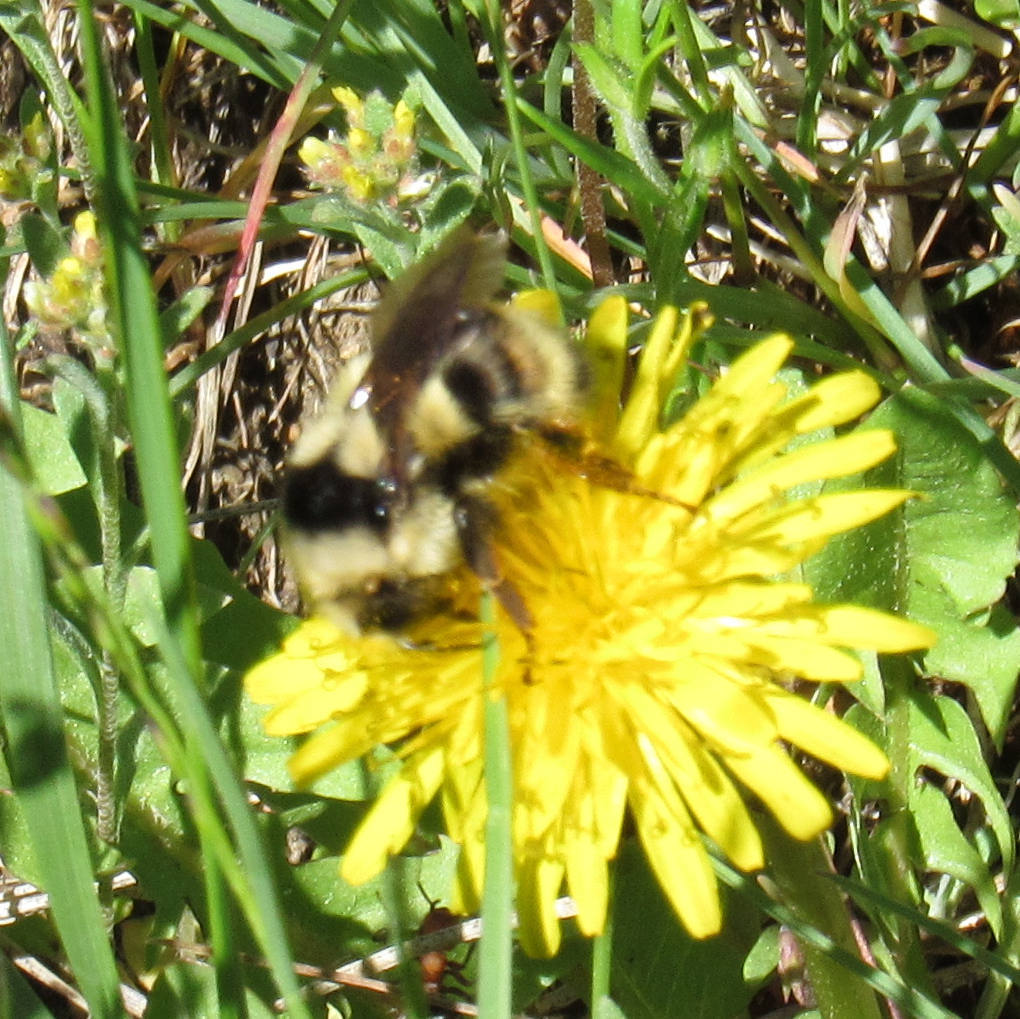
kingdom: Animalia
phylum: Arthropoda
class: Insecta
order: Hymenoptera
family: Apidae
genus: Bombus
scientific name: Bombus vancouverensis
